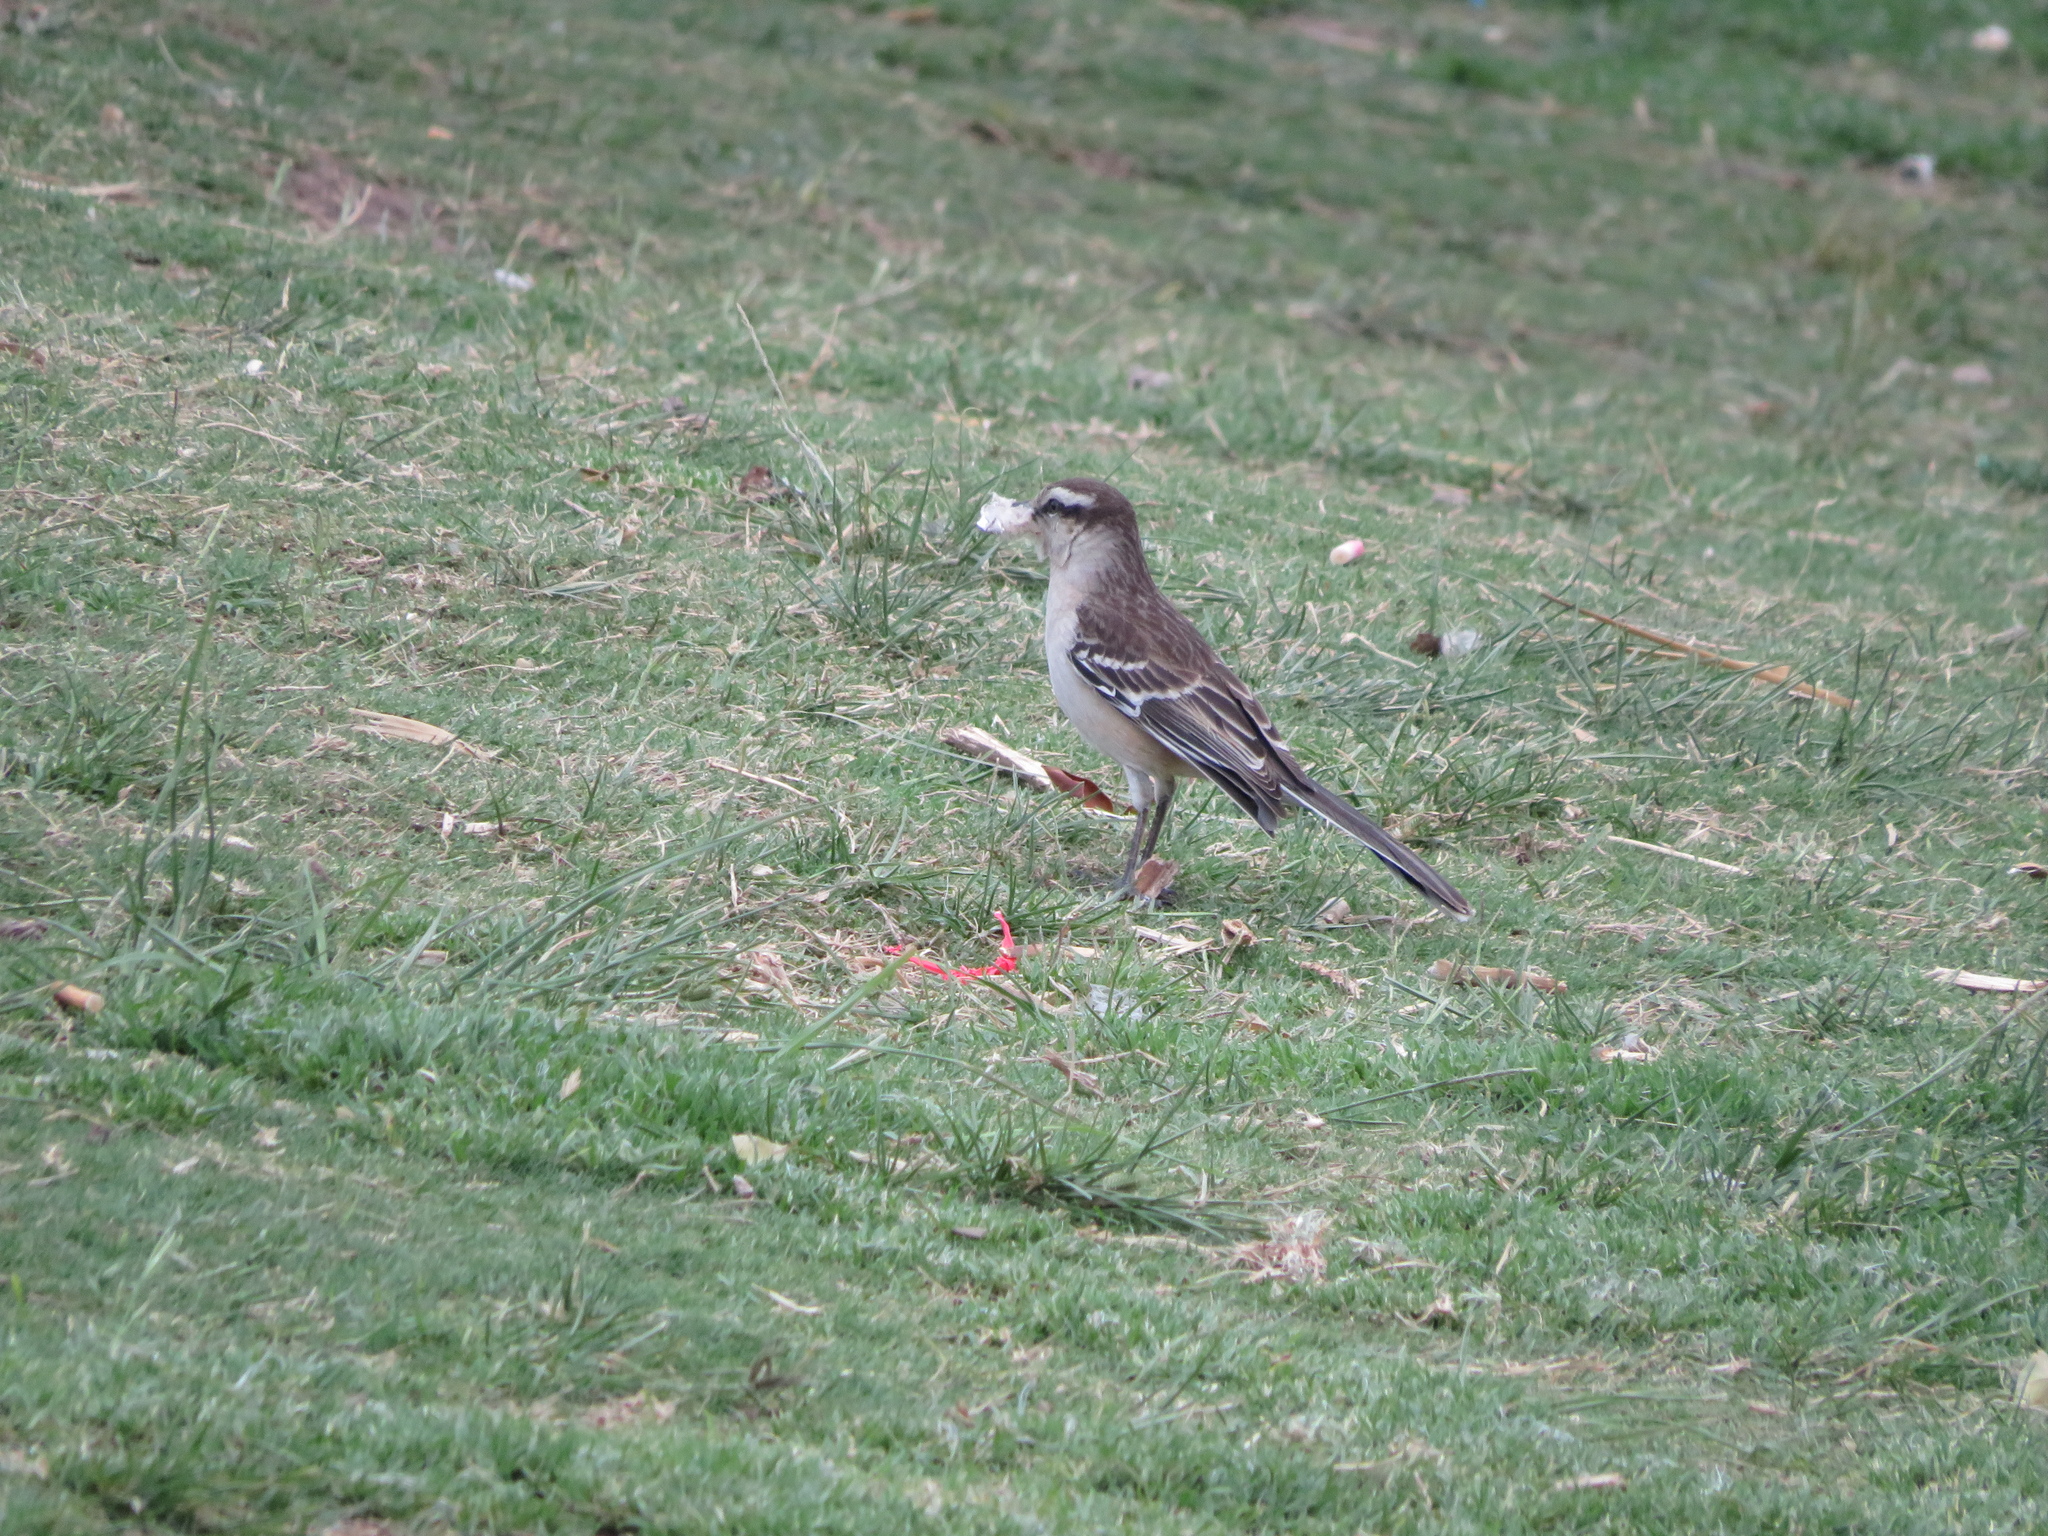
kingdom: Animalia
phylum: Chordata
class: Aves
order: Passeriformes
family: Mimidae
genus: Mimus
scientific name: Mimus saturninus
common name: Chalk-browed mockingbird
